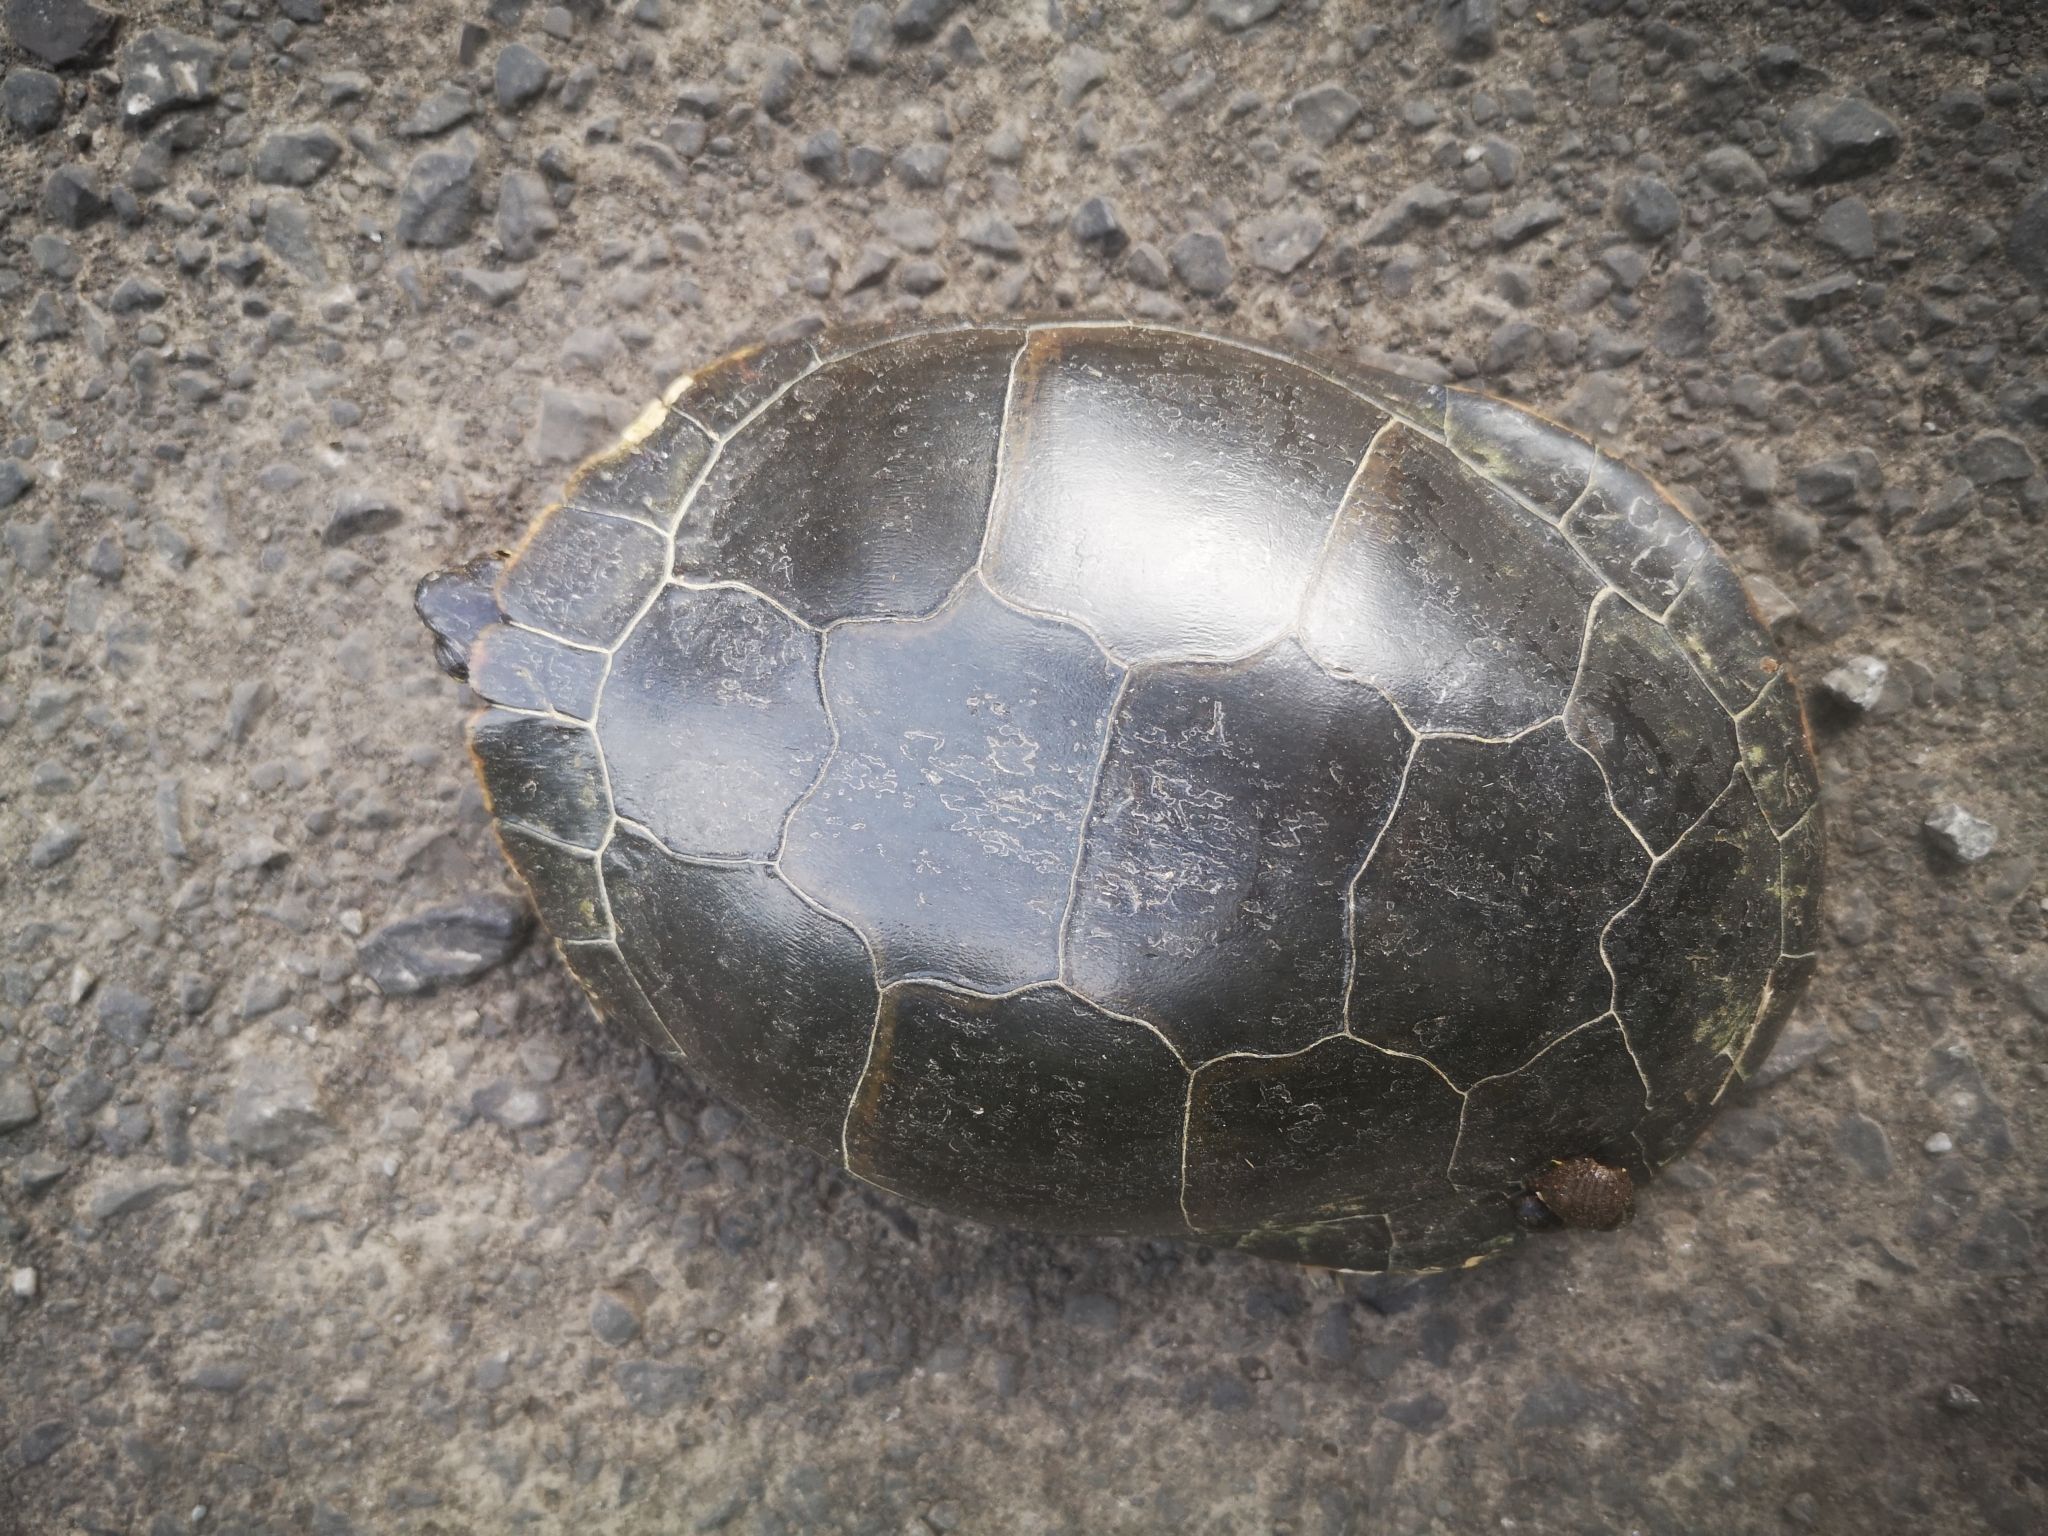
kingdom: Animalia
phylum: Chordata
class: Testudines
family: Emydidae
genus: Chrysemys
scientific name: Chrysemys picta
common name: Painted turtle
